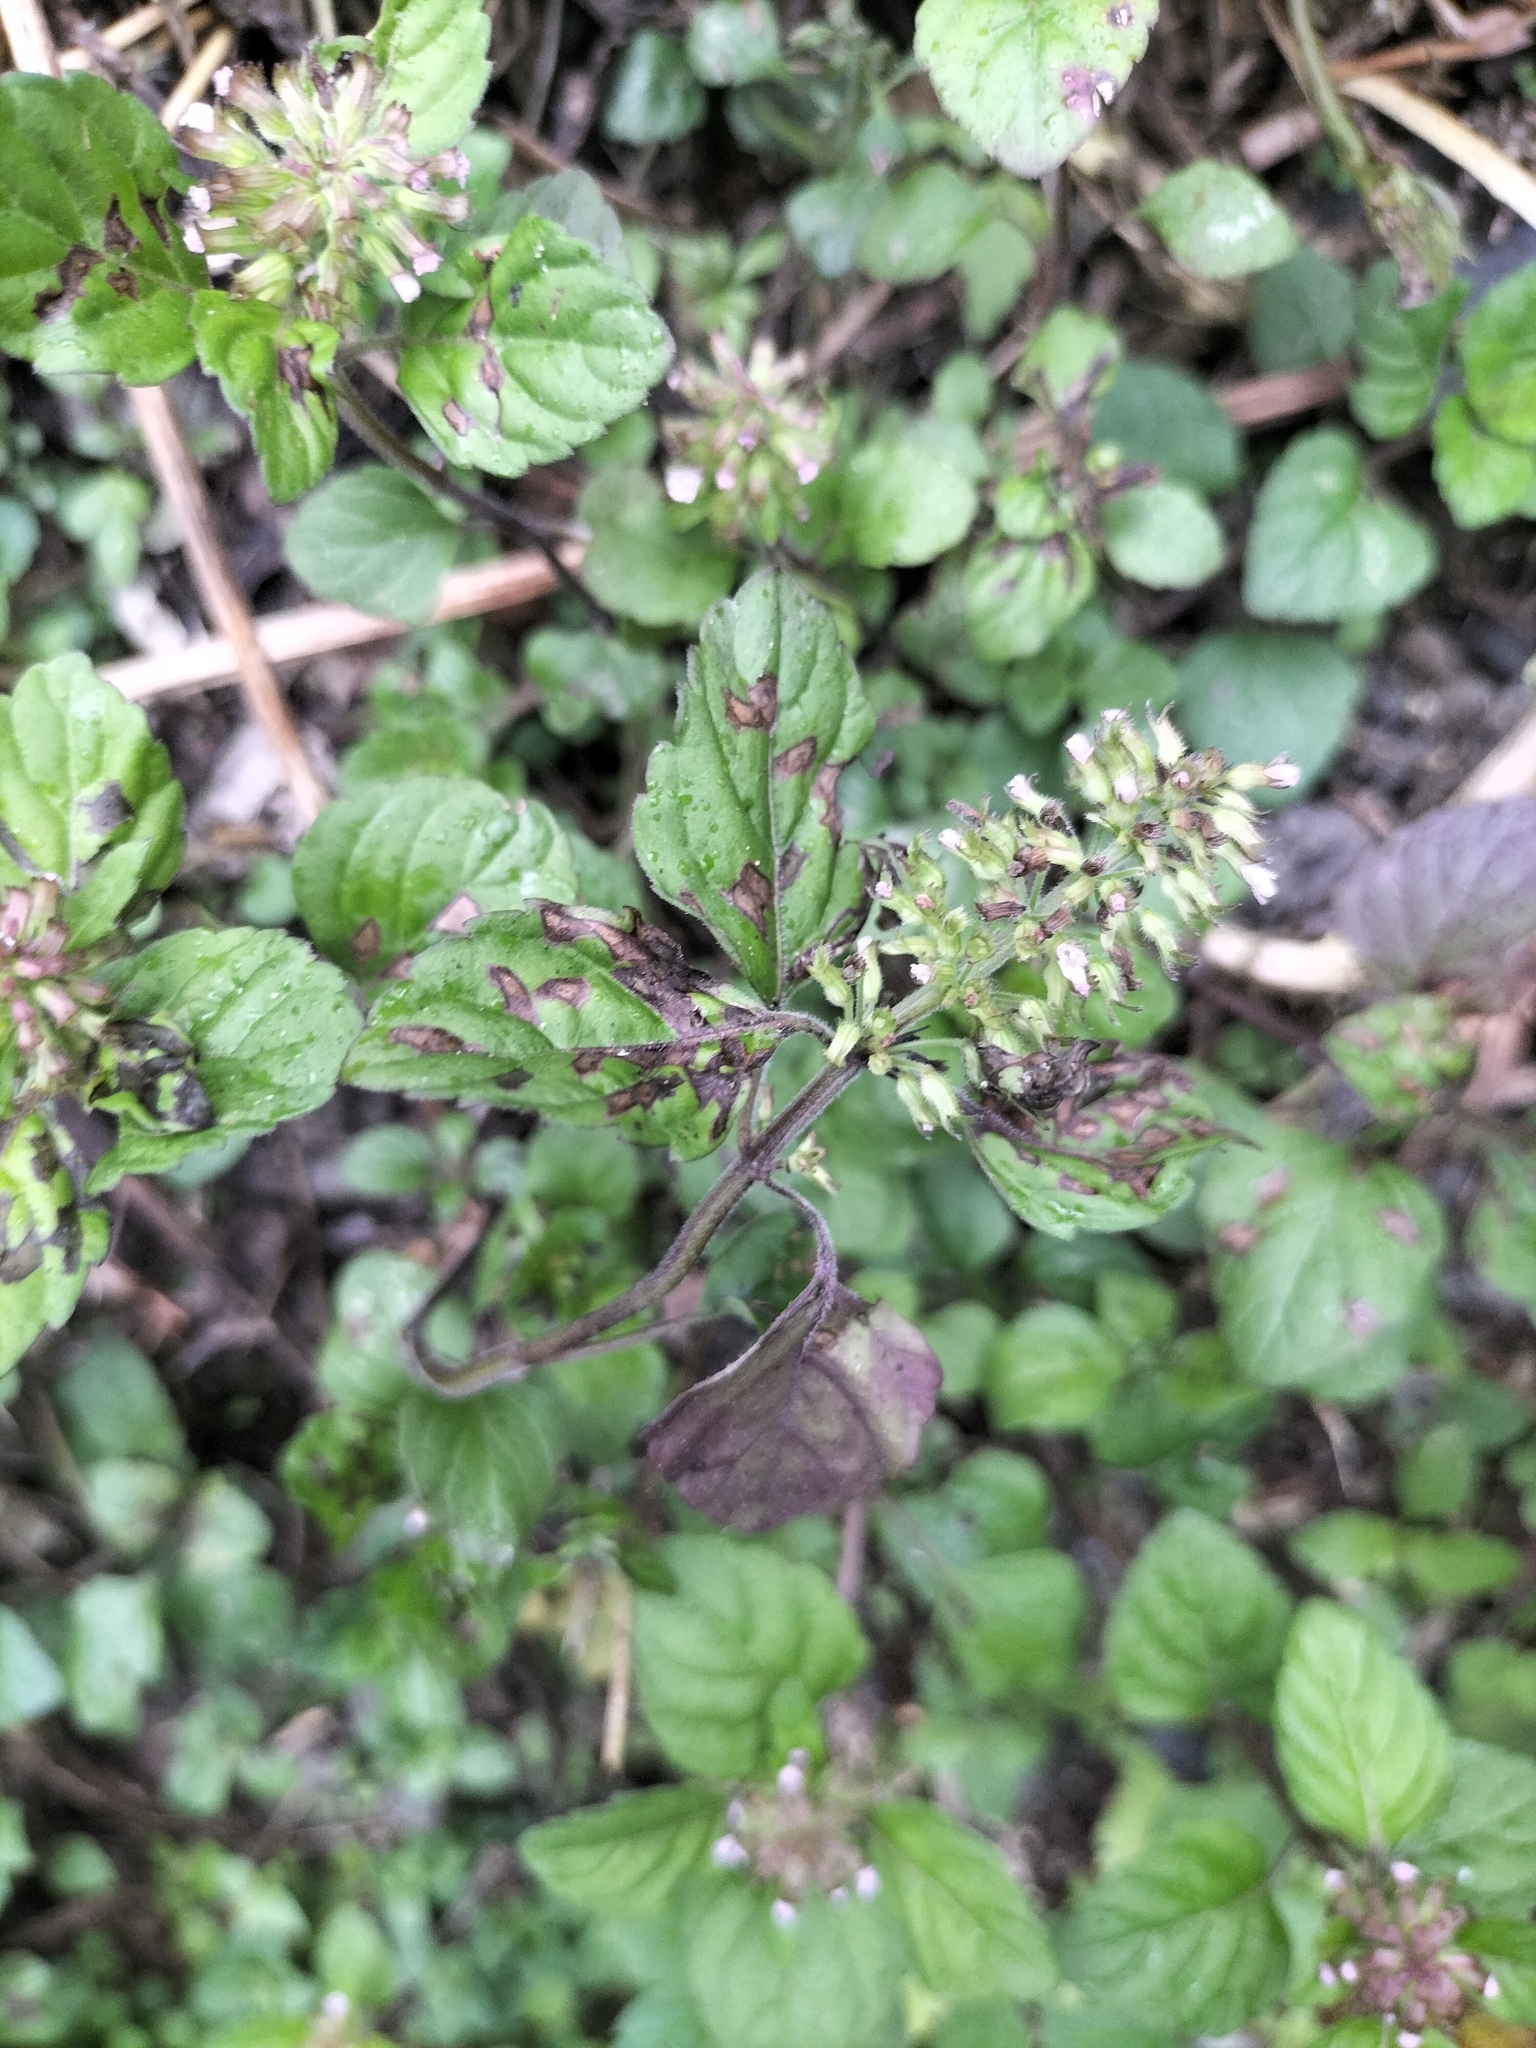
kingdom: Plantae
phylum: Tracheophyta
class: Magnoliopsida
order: Lamiales
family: Lamiaceae
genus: Clinopodium
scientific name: Clinopodium gracile
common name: Slender wild basil
